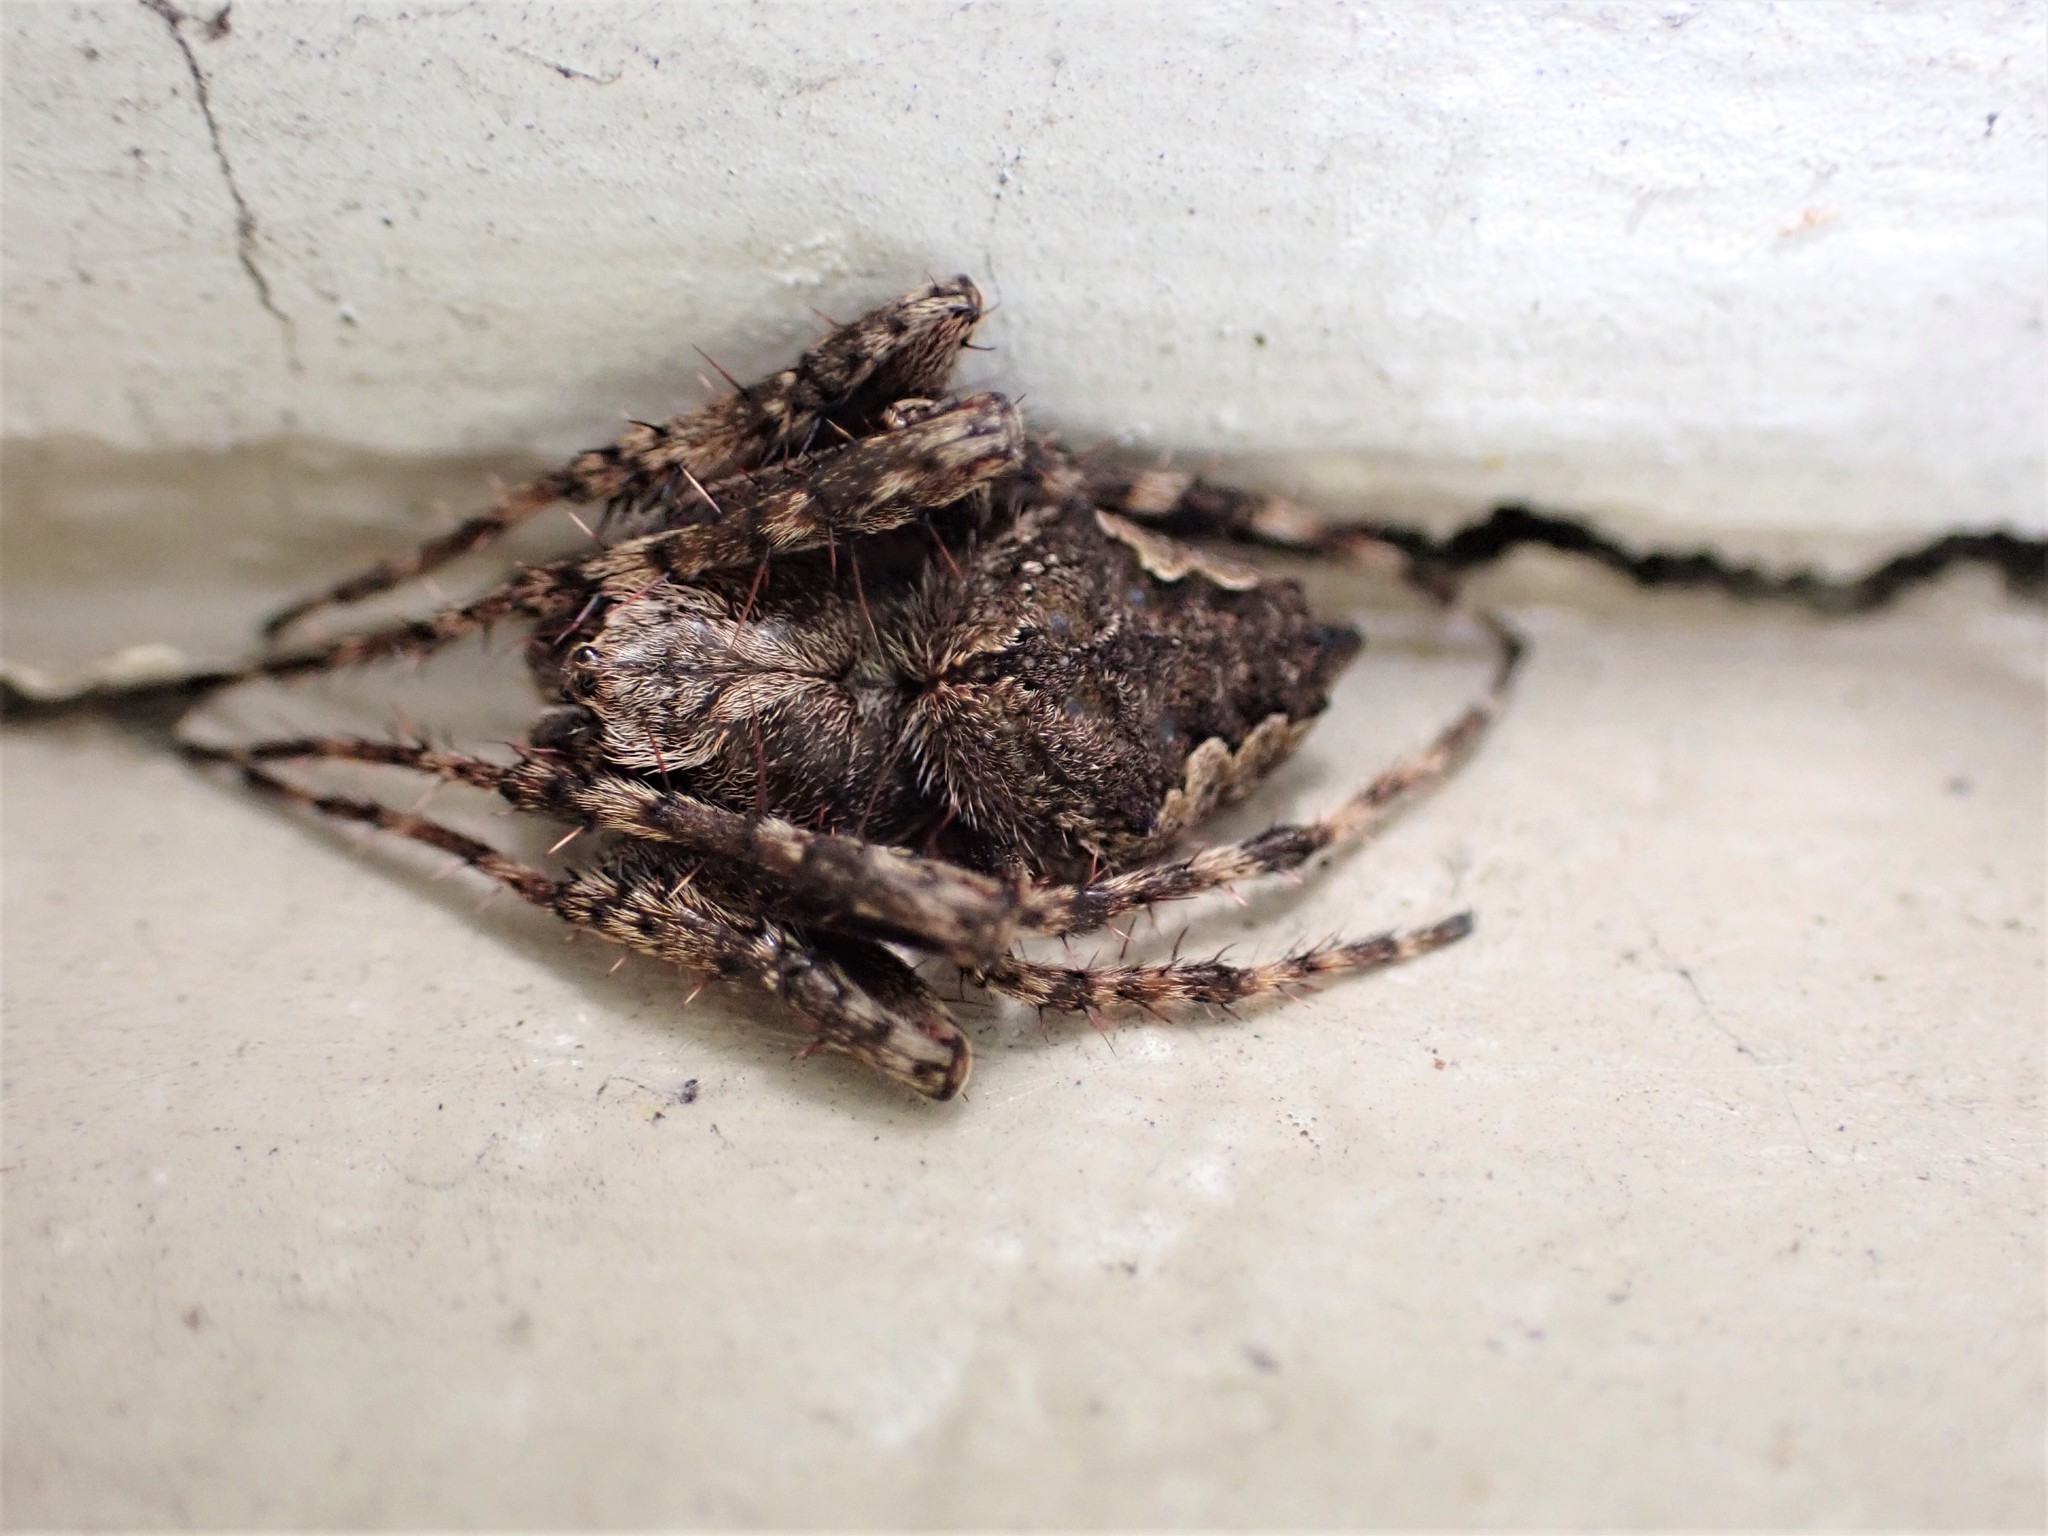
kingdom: Animalia
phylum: Arthropoda
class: Arachnida
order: Araneae
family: Araneidae
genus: Eriophora
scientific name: Eriophora pustulosa
